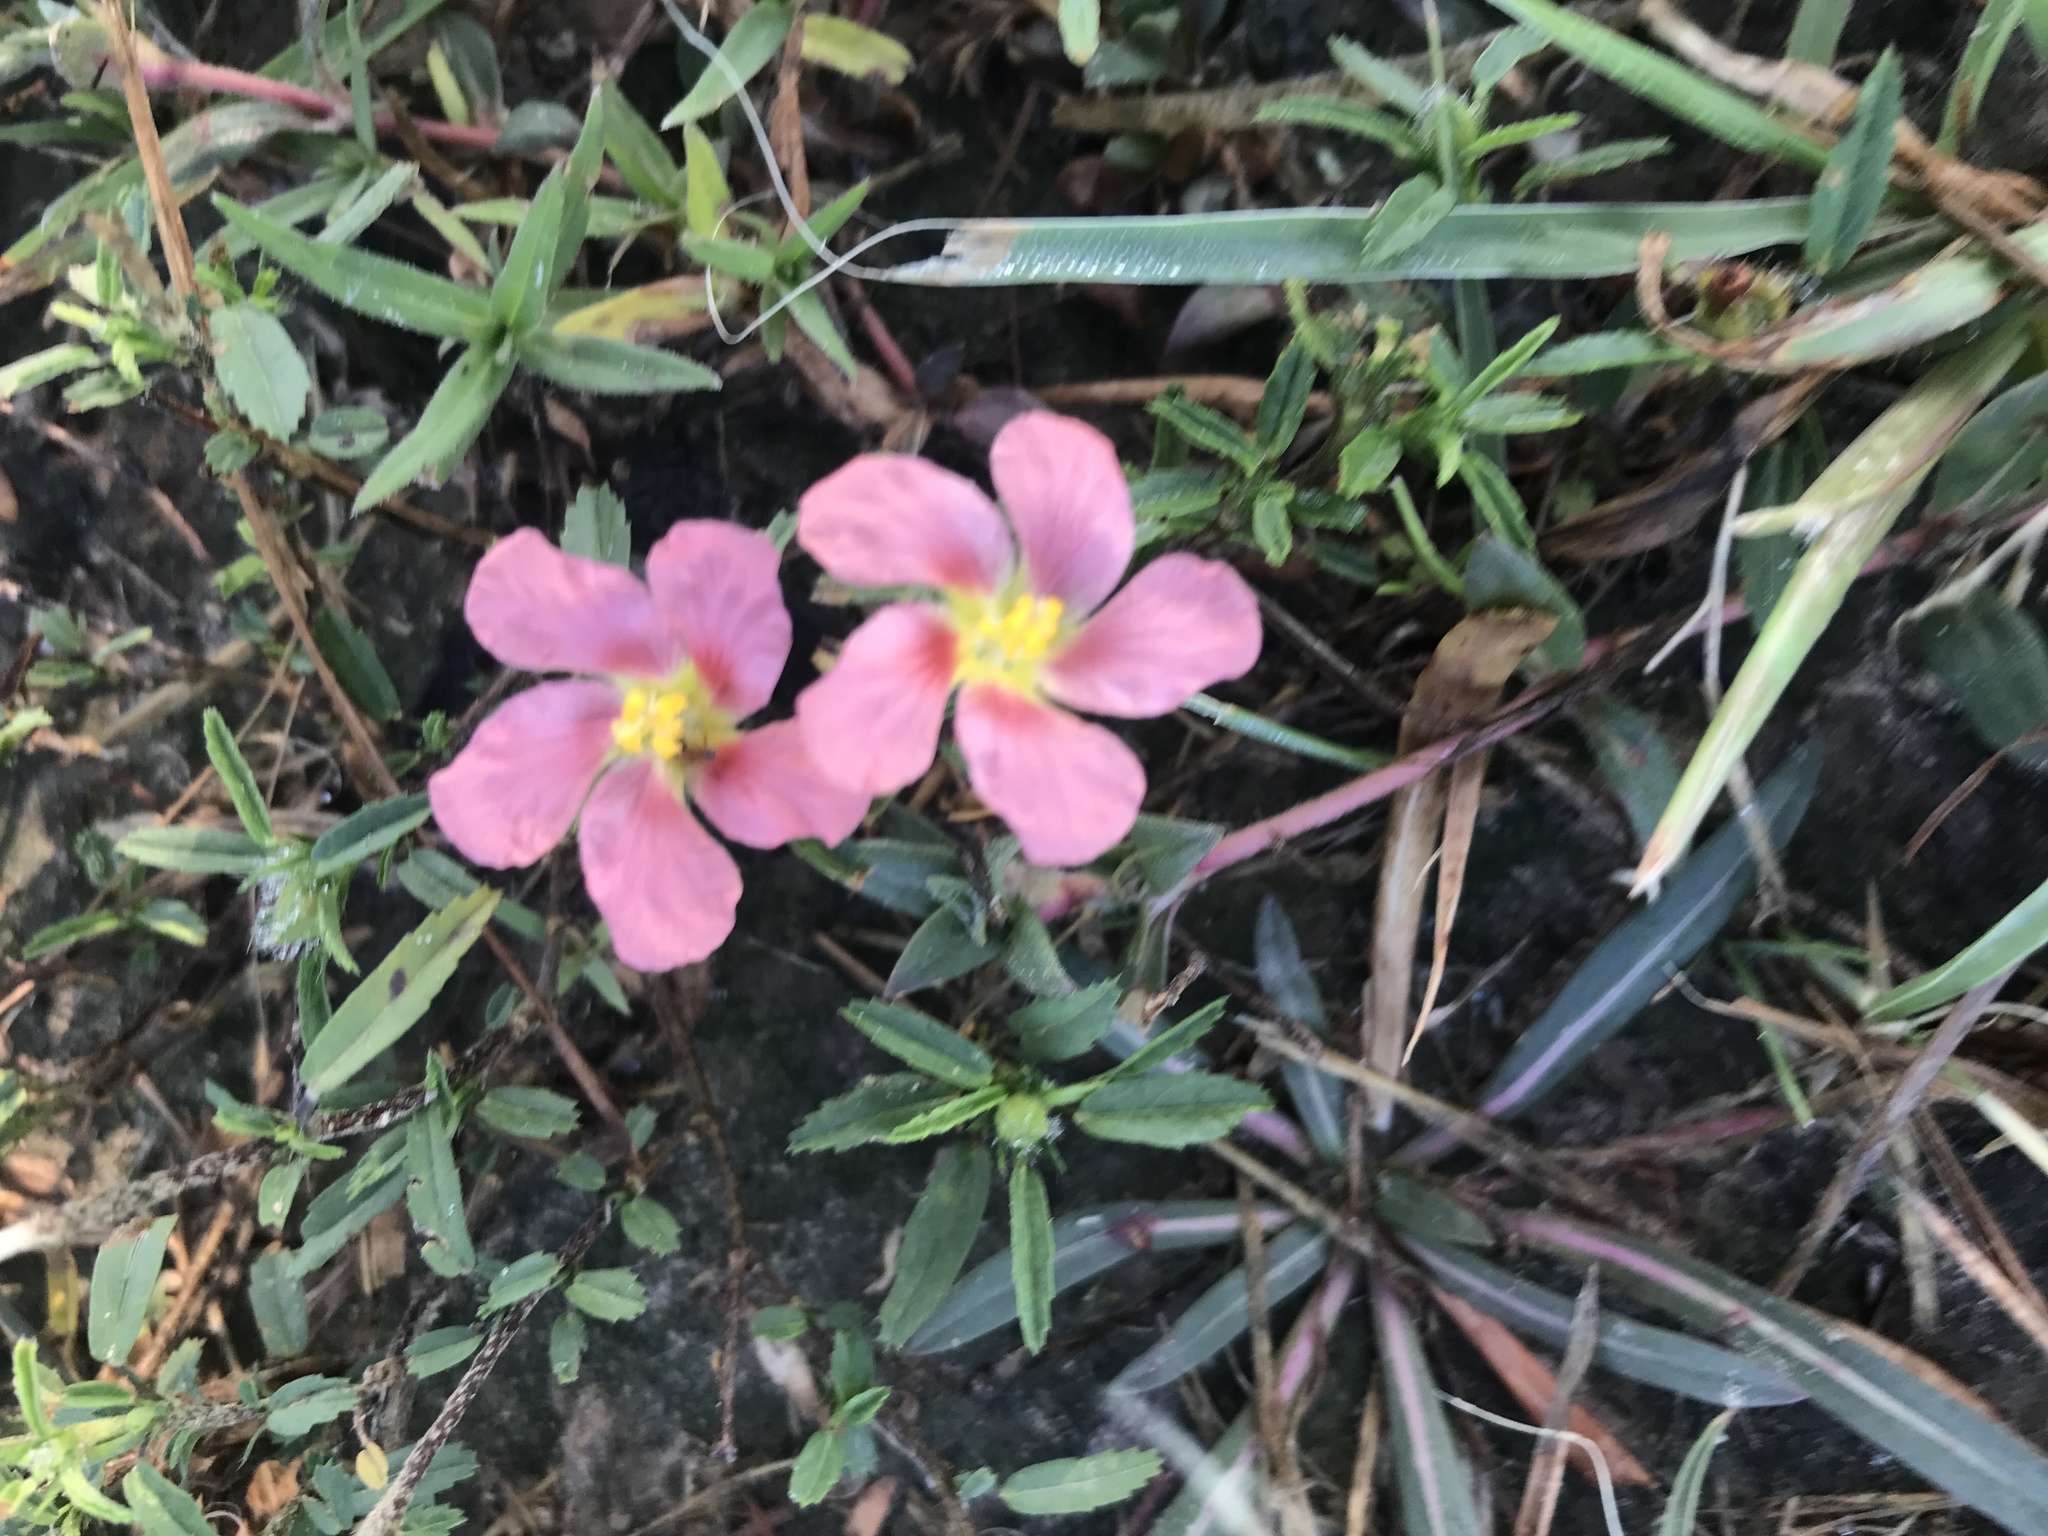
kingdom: Plantae
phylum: Tracheophyta
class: Magnoliopsida
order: Malvales
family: Malvaceae
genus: Sida
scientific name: Sida ciliaris
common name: Bracted fanpetals
